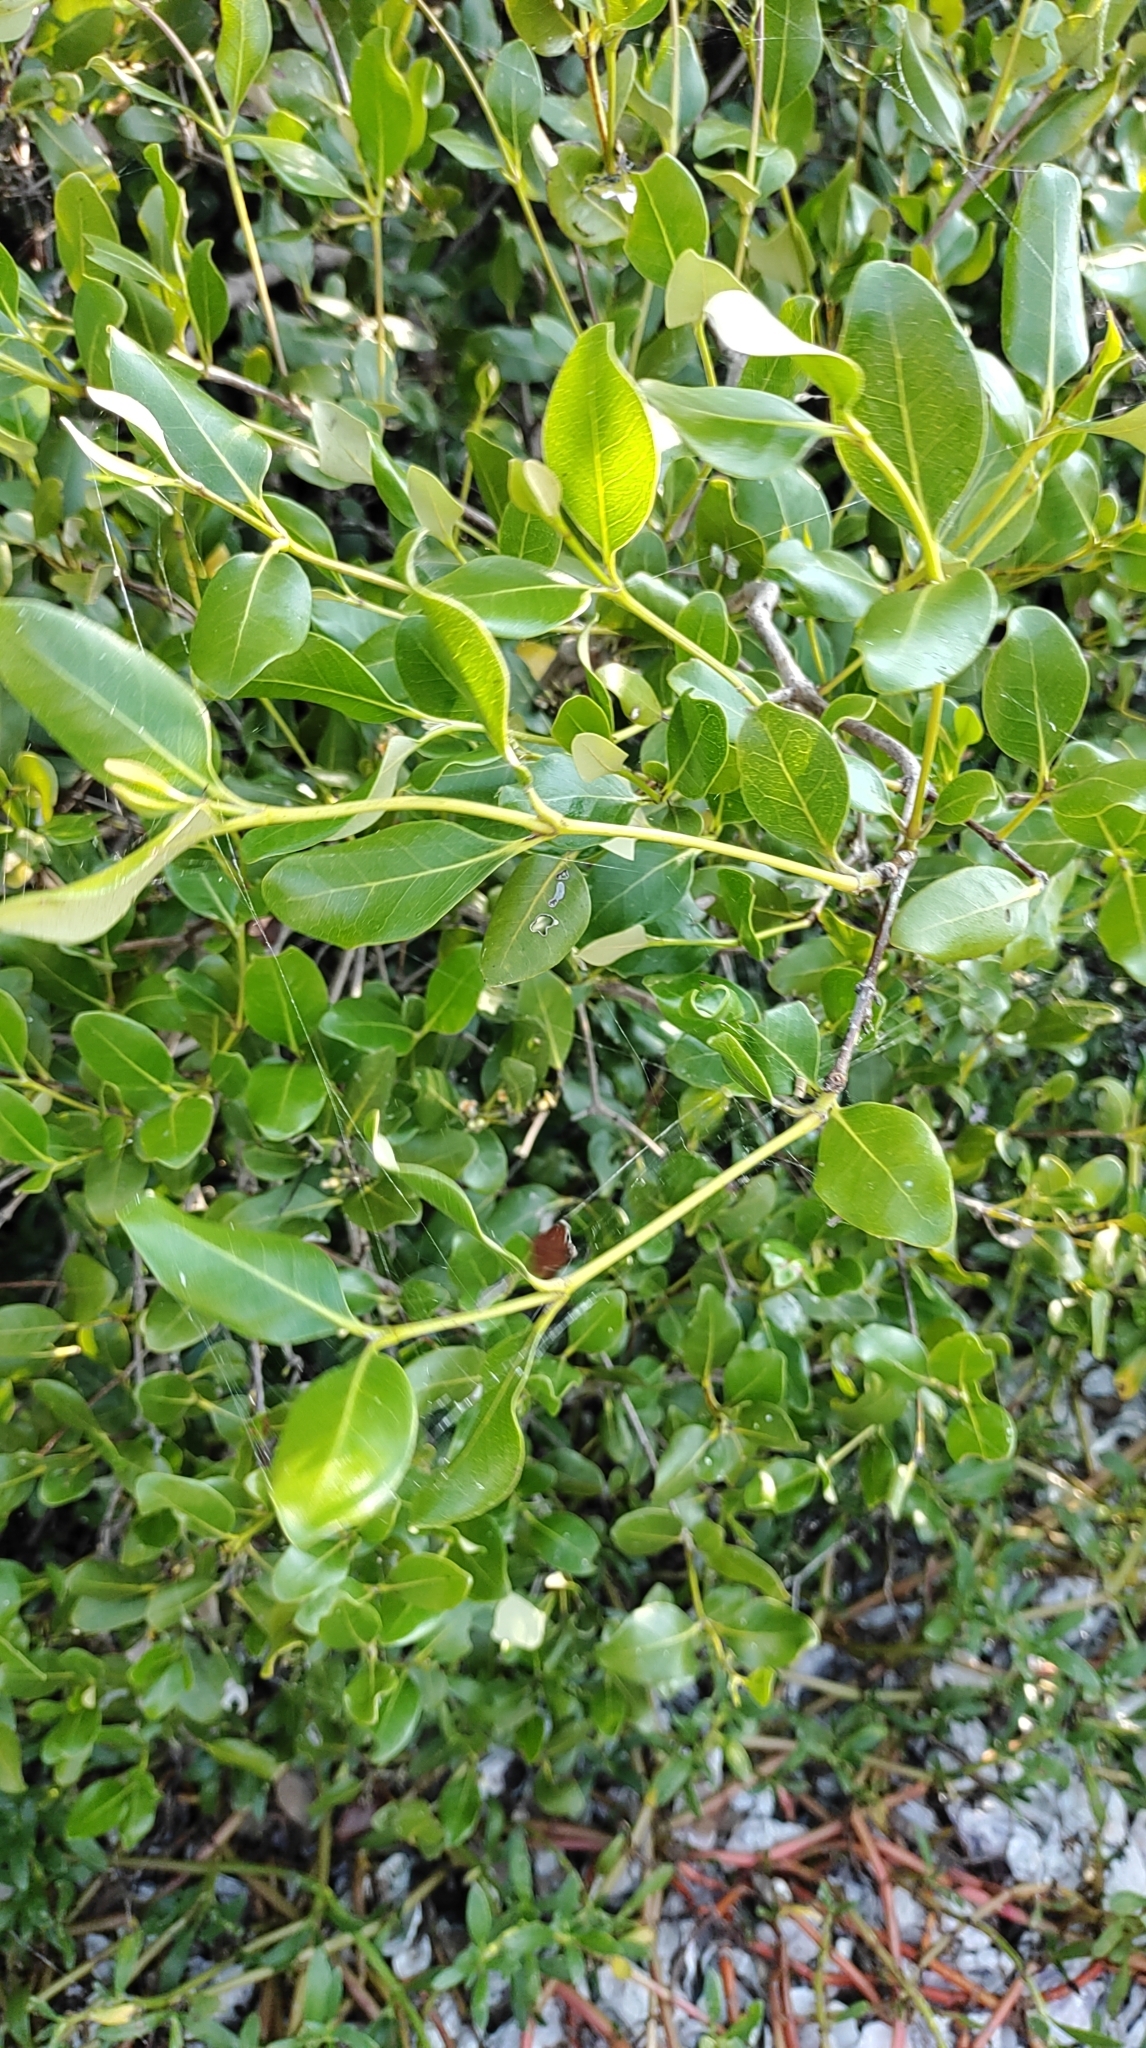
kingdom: Plantae
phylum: Tracheophyta
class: Magnoliopsida
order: Lamiales
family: Acanthaceae
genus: Avicennia
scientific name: Avicennia marina
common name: Gray mangrove
